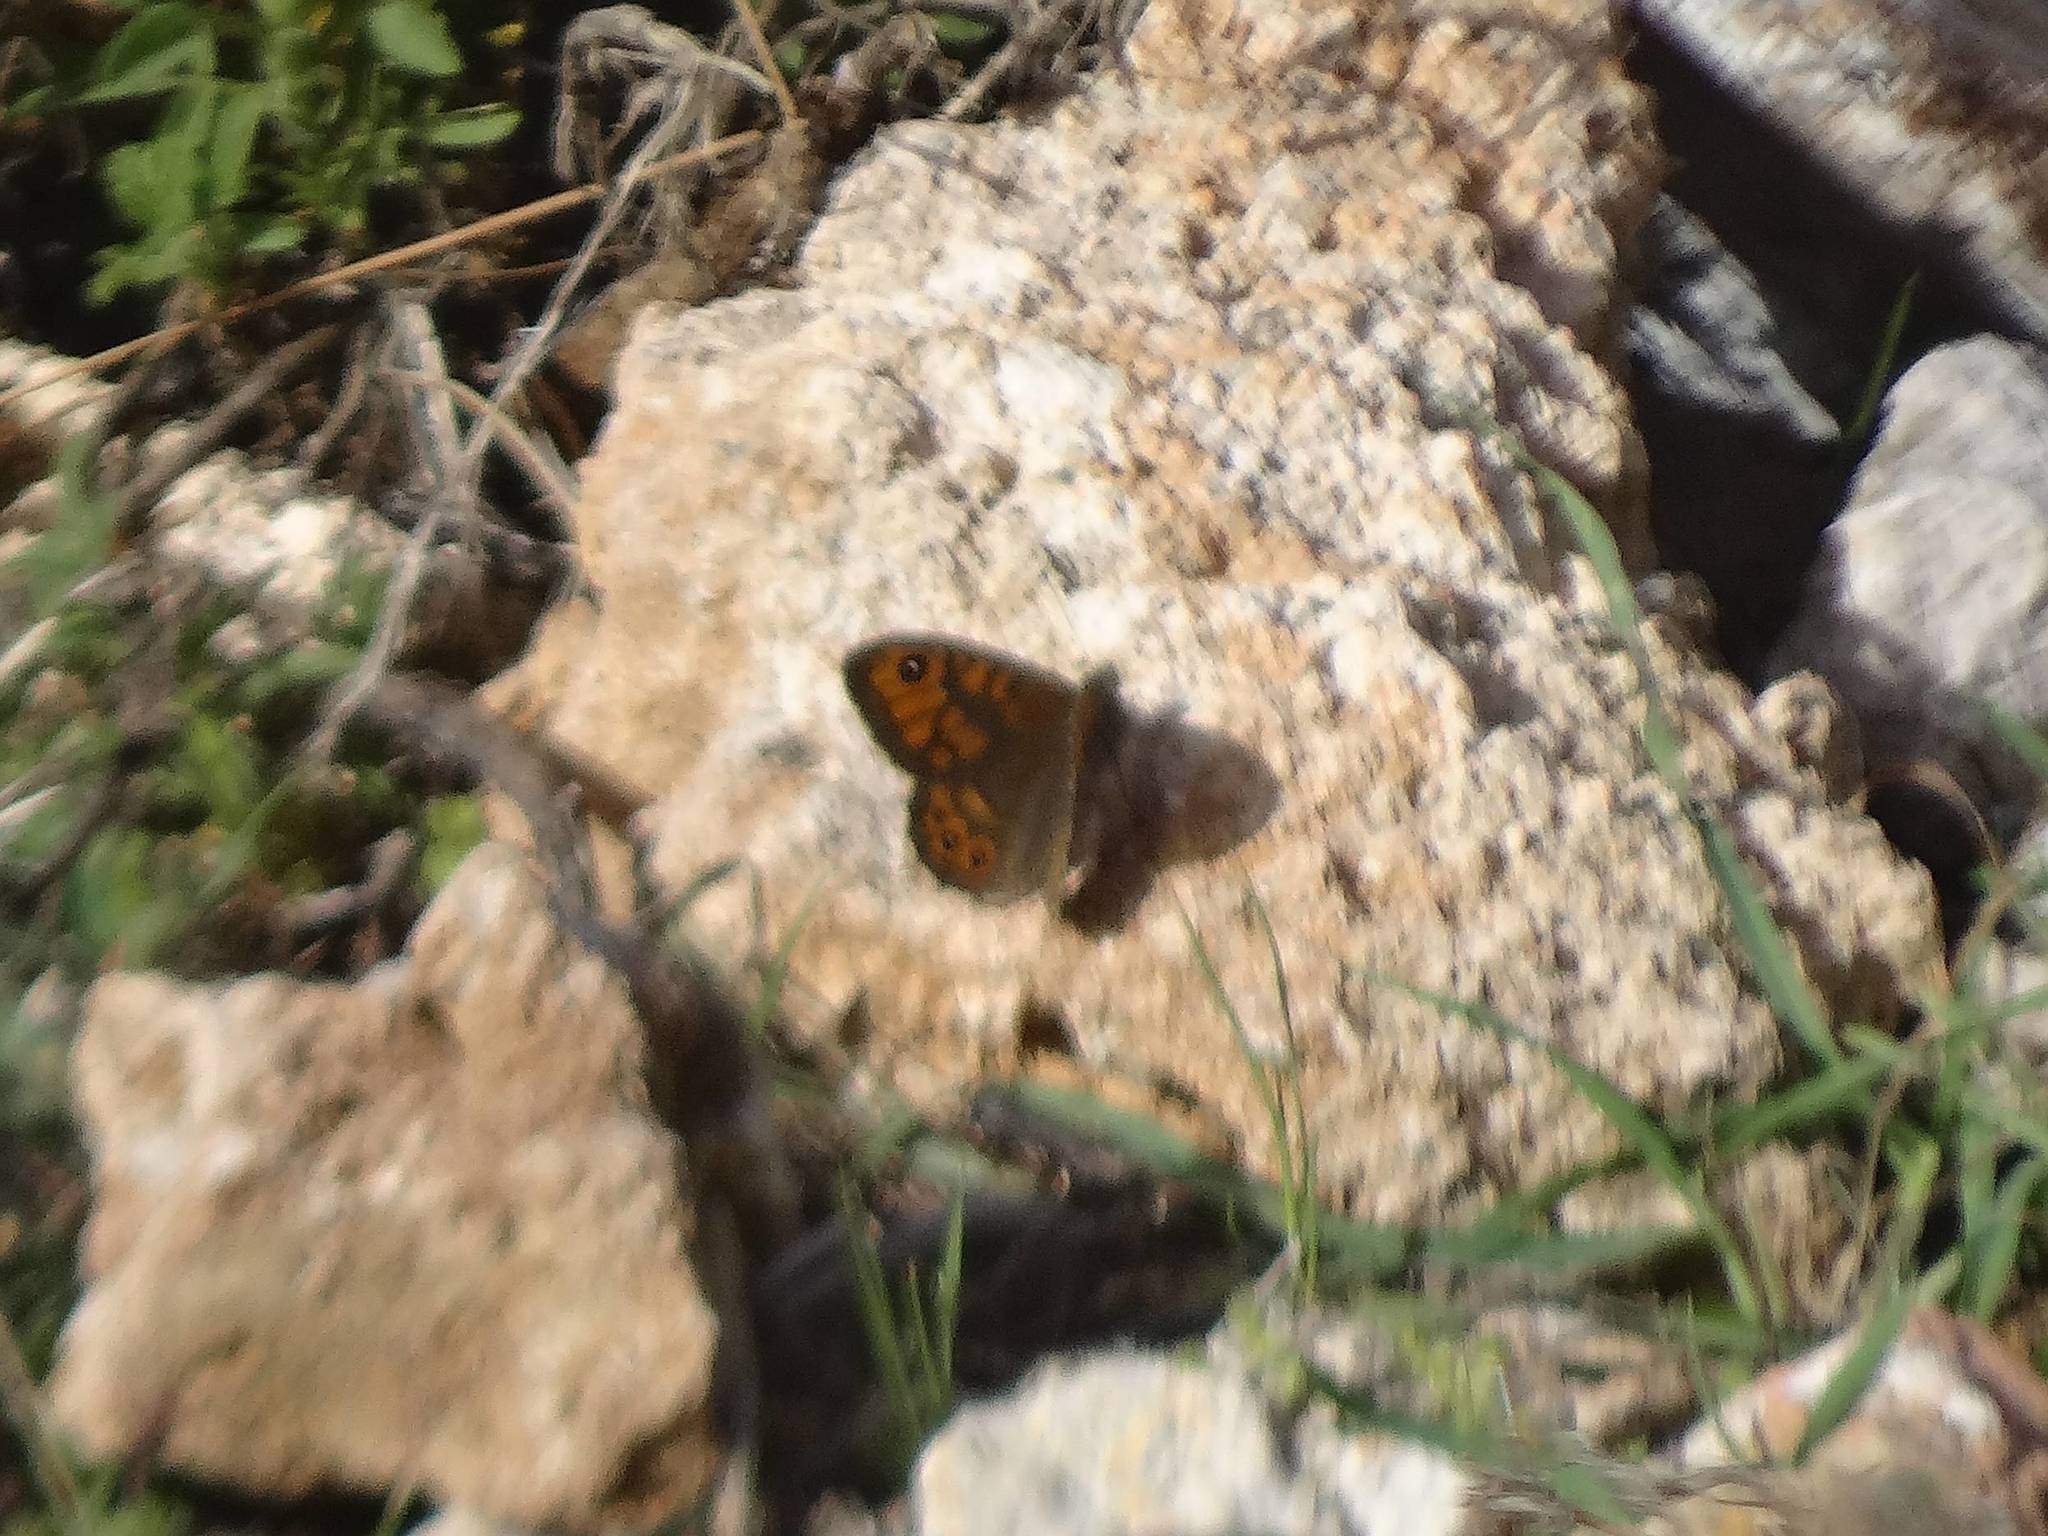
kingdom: Animalia
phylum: Arthropoda
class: Insecta
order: Lepidoptera
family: Nymphalidae
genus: Pararge
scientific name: Pararge Lasiommata megera
